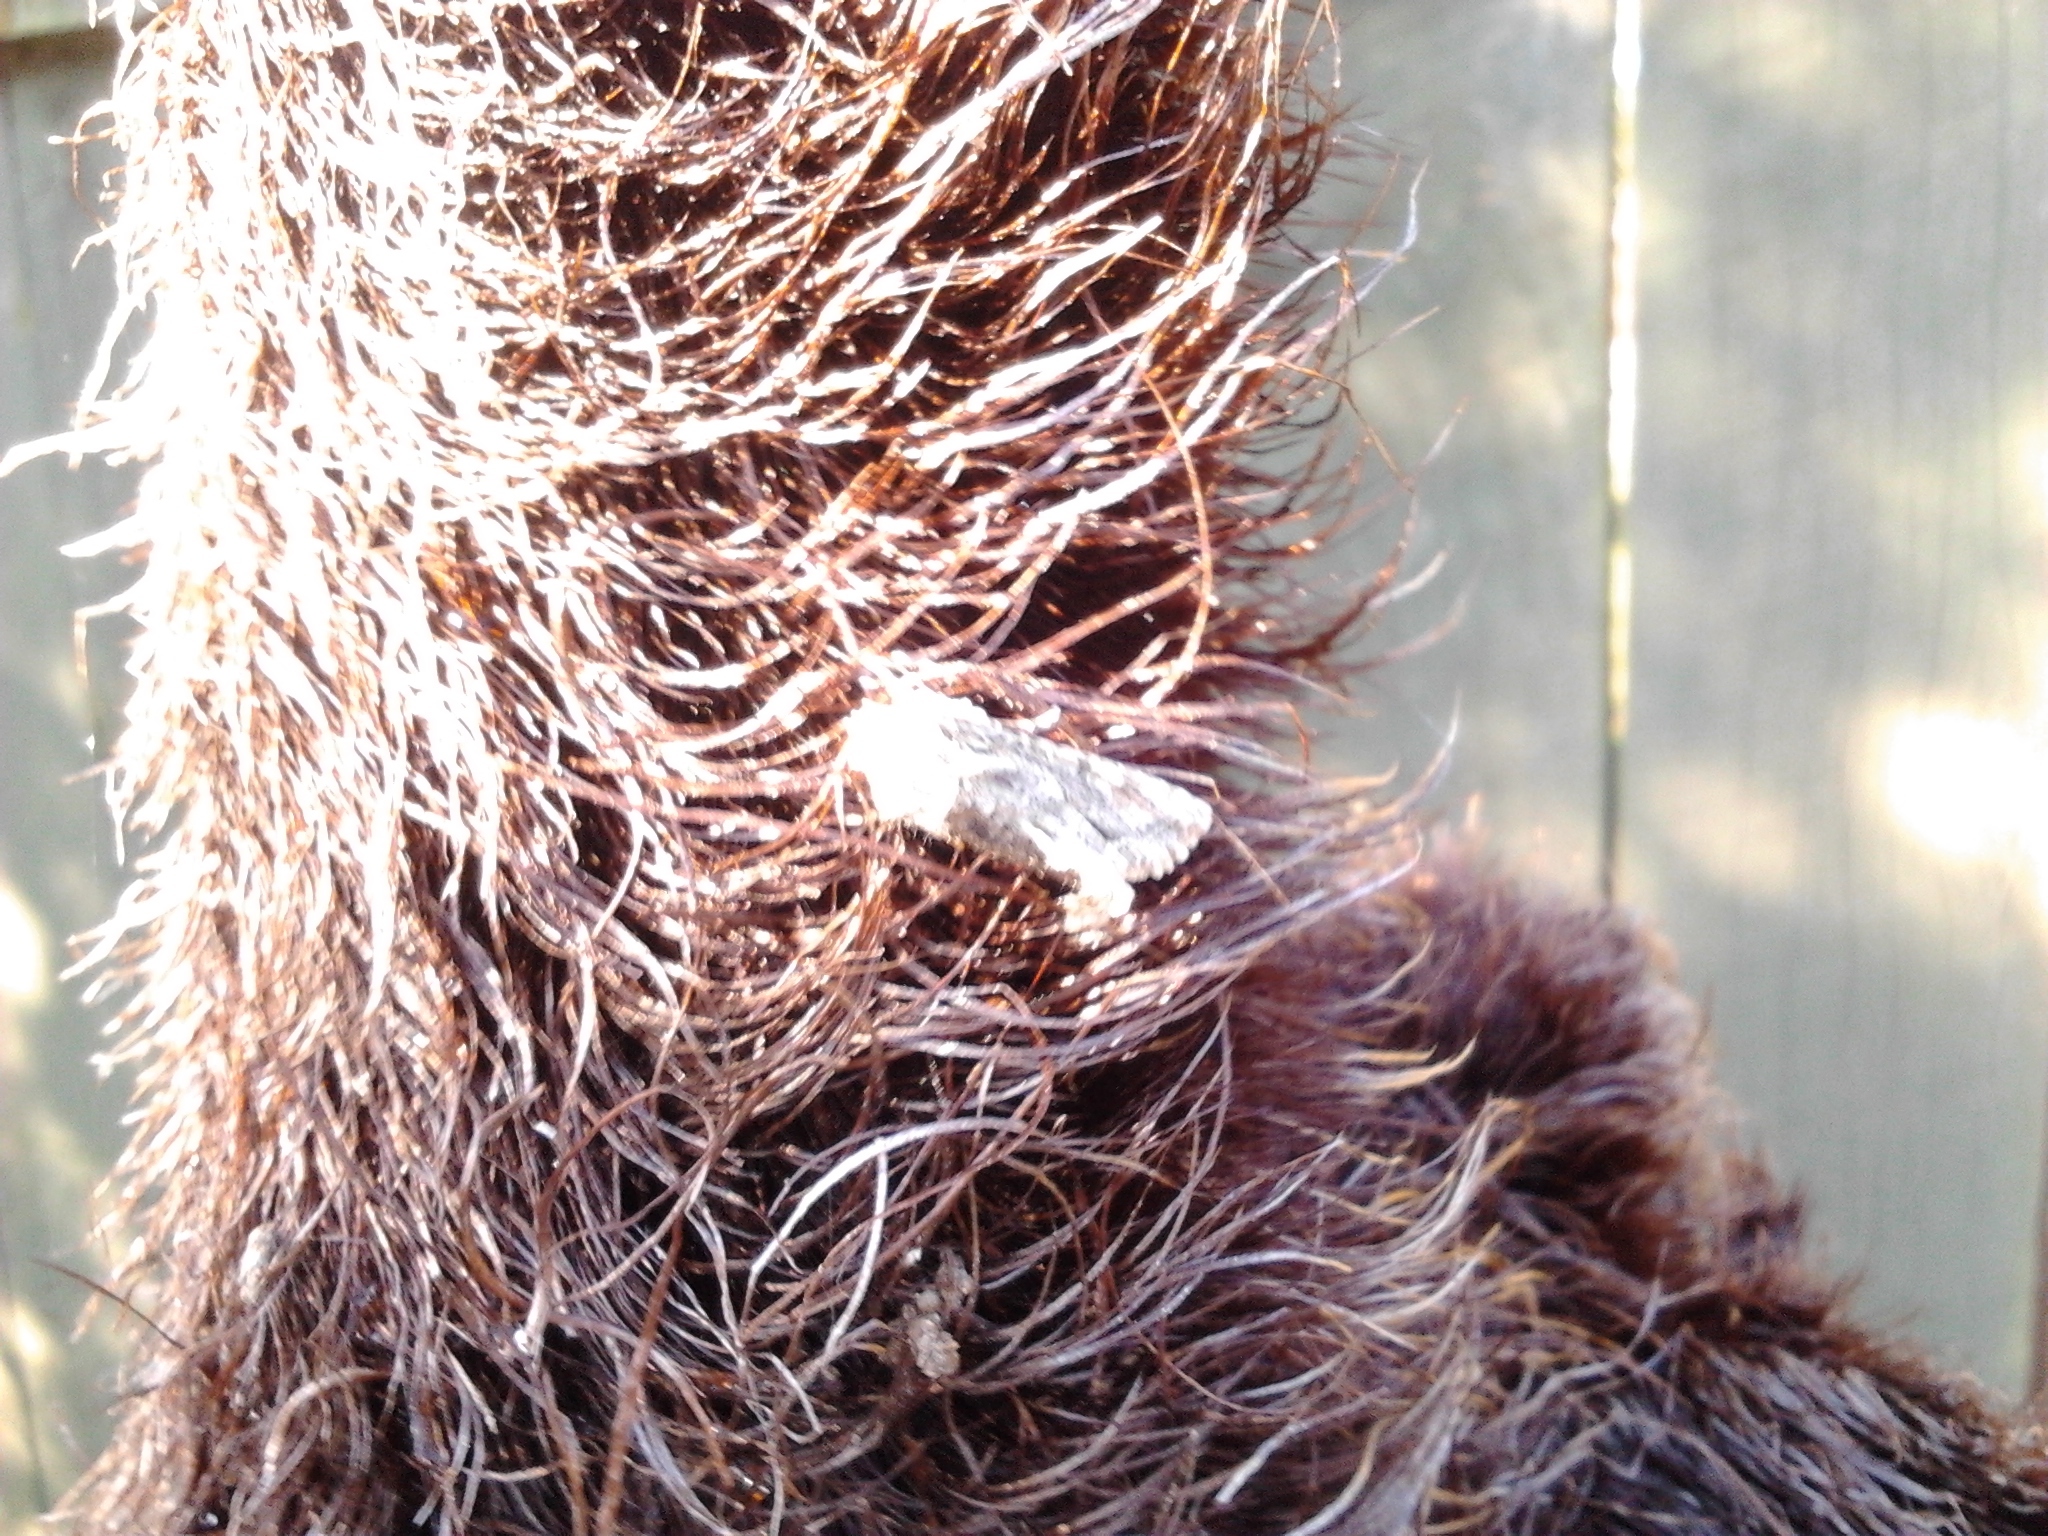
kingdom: Animalia
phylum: Arthropoda
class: Insecta
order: Lepidoptera
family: Crambidae
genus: Eudonia
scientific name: Eudonia diphtheralis
